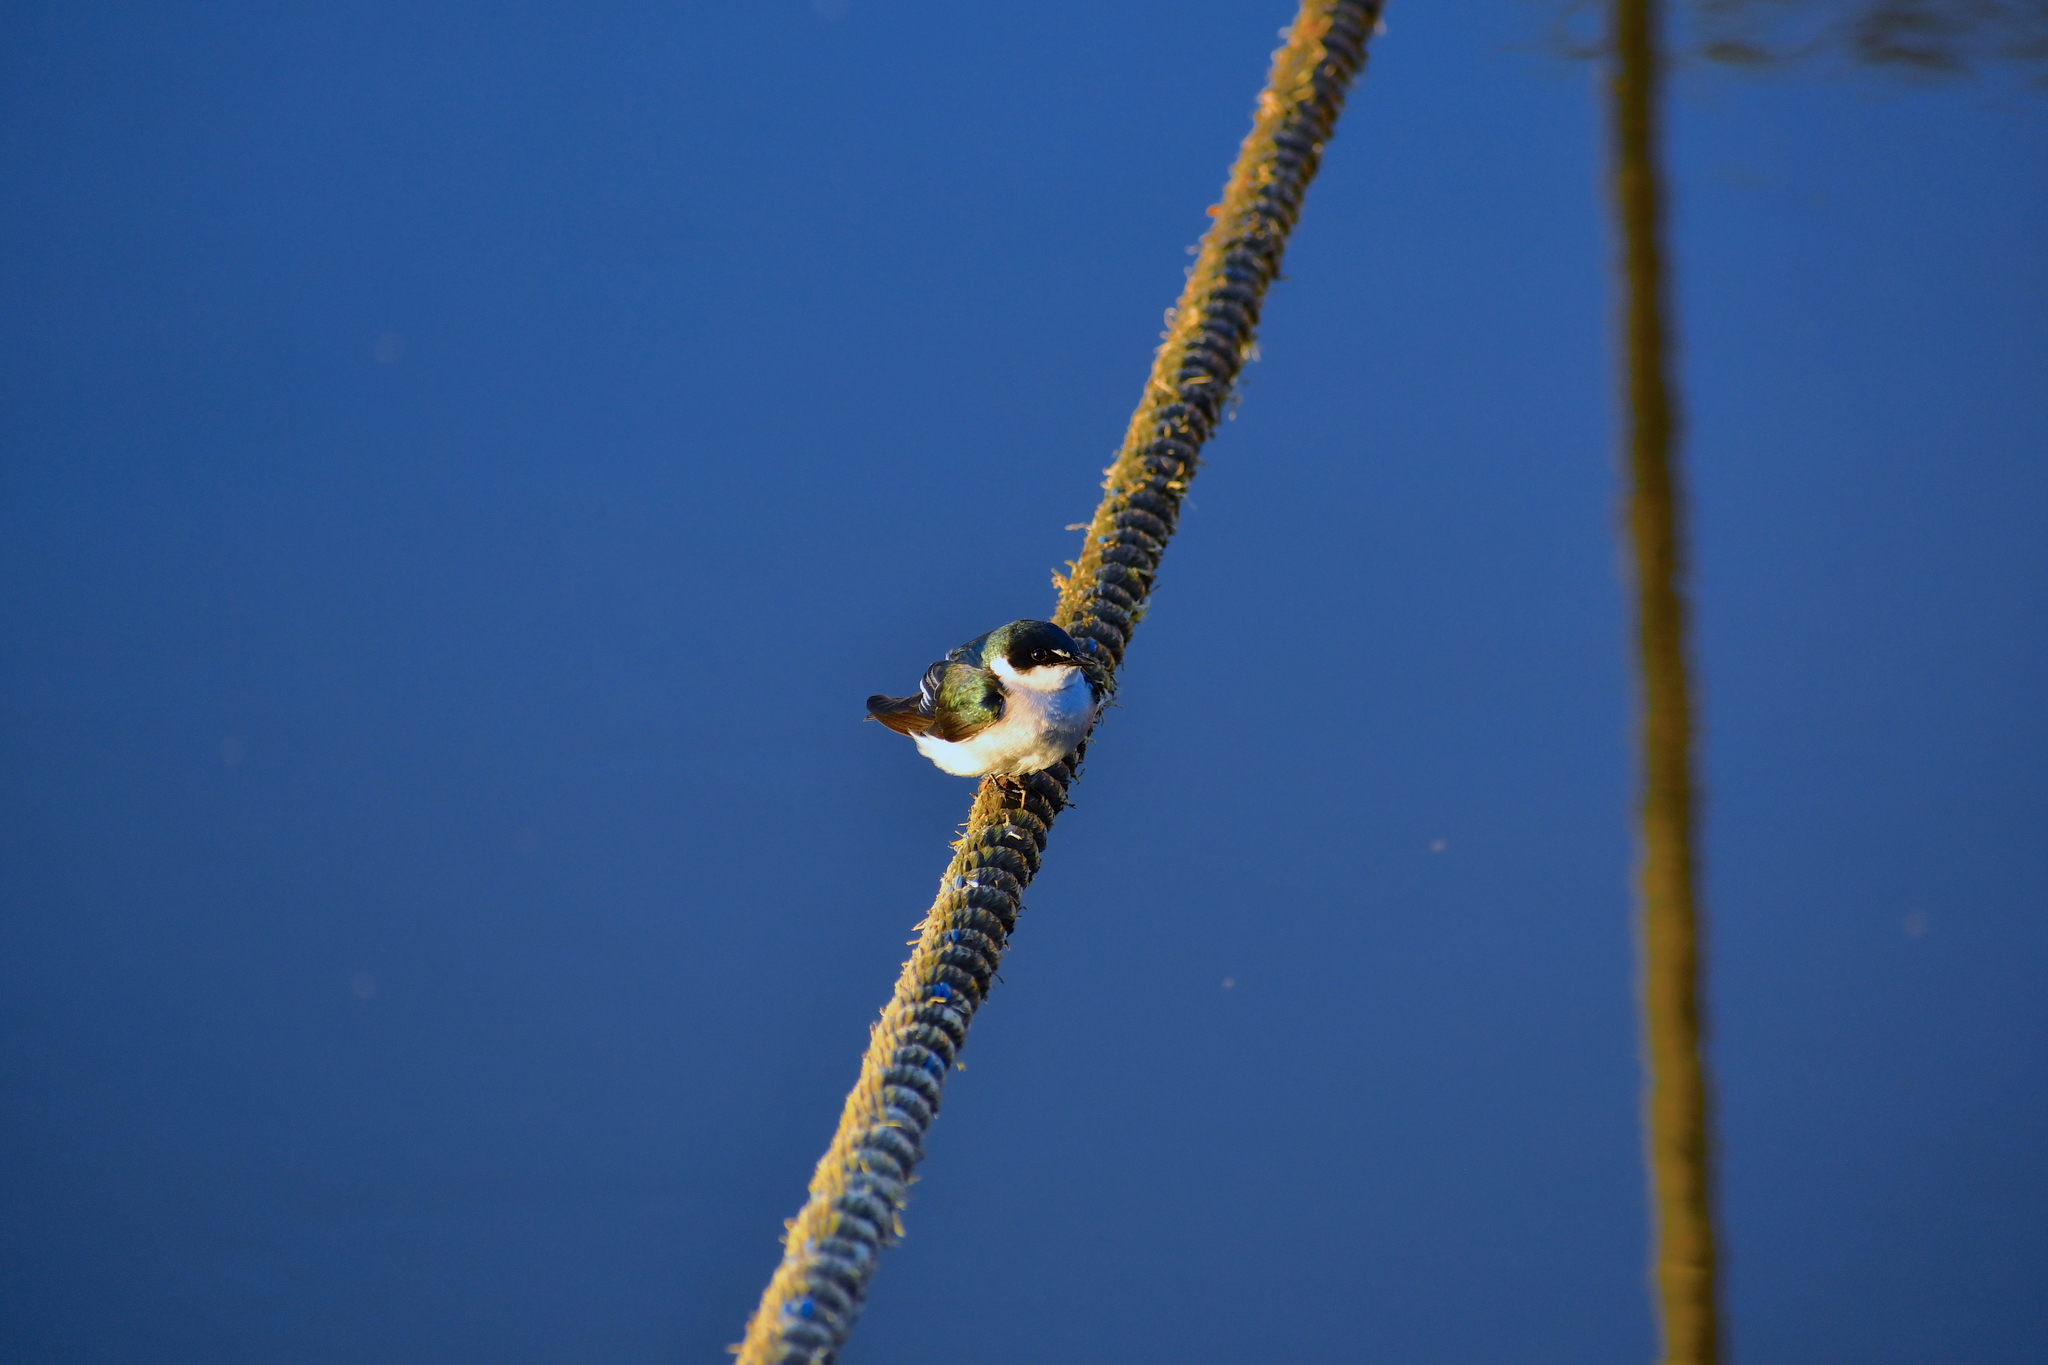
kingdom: Animalia
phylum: Chordata
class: Aves
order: Passeriformes
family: Hirundinidae
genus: Tachycineta
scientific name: Tachycineta albilinea
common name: Mangrove swallow
